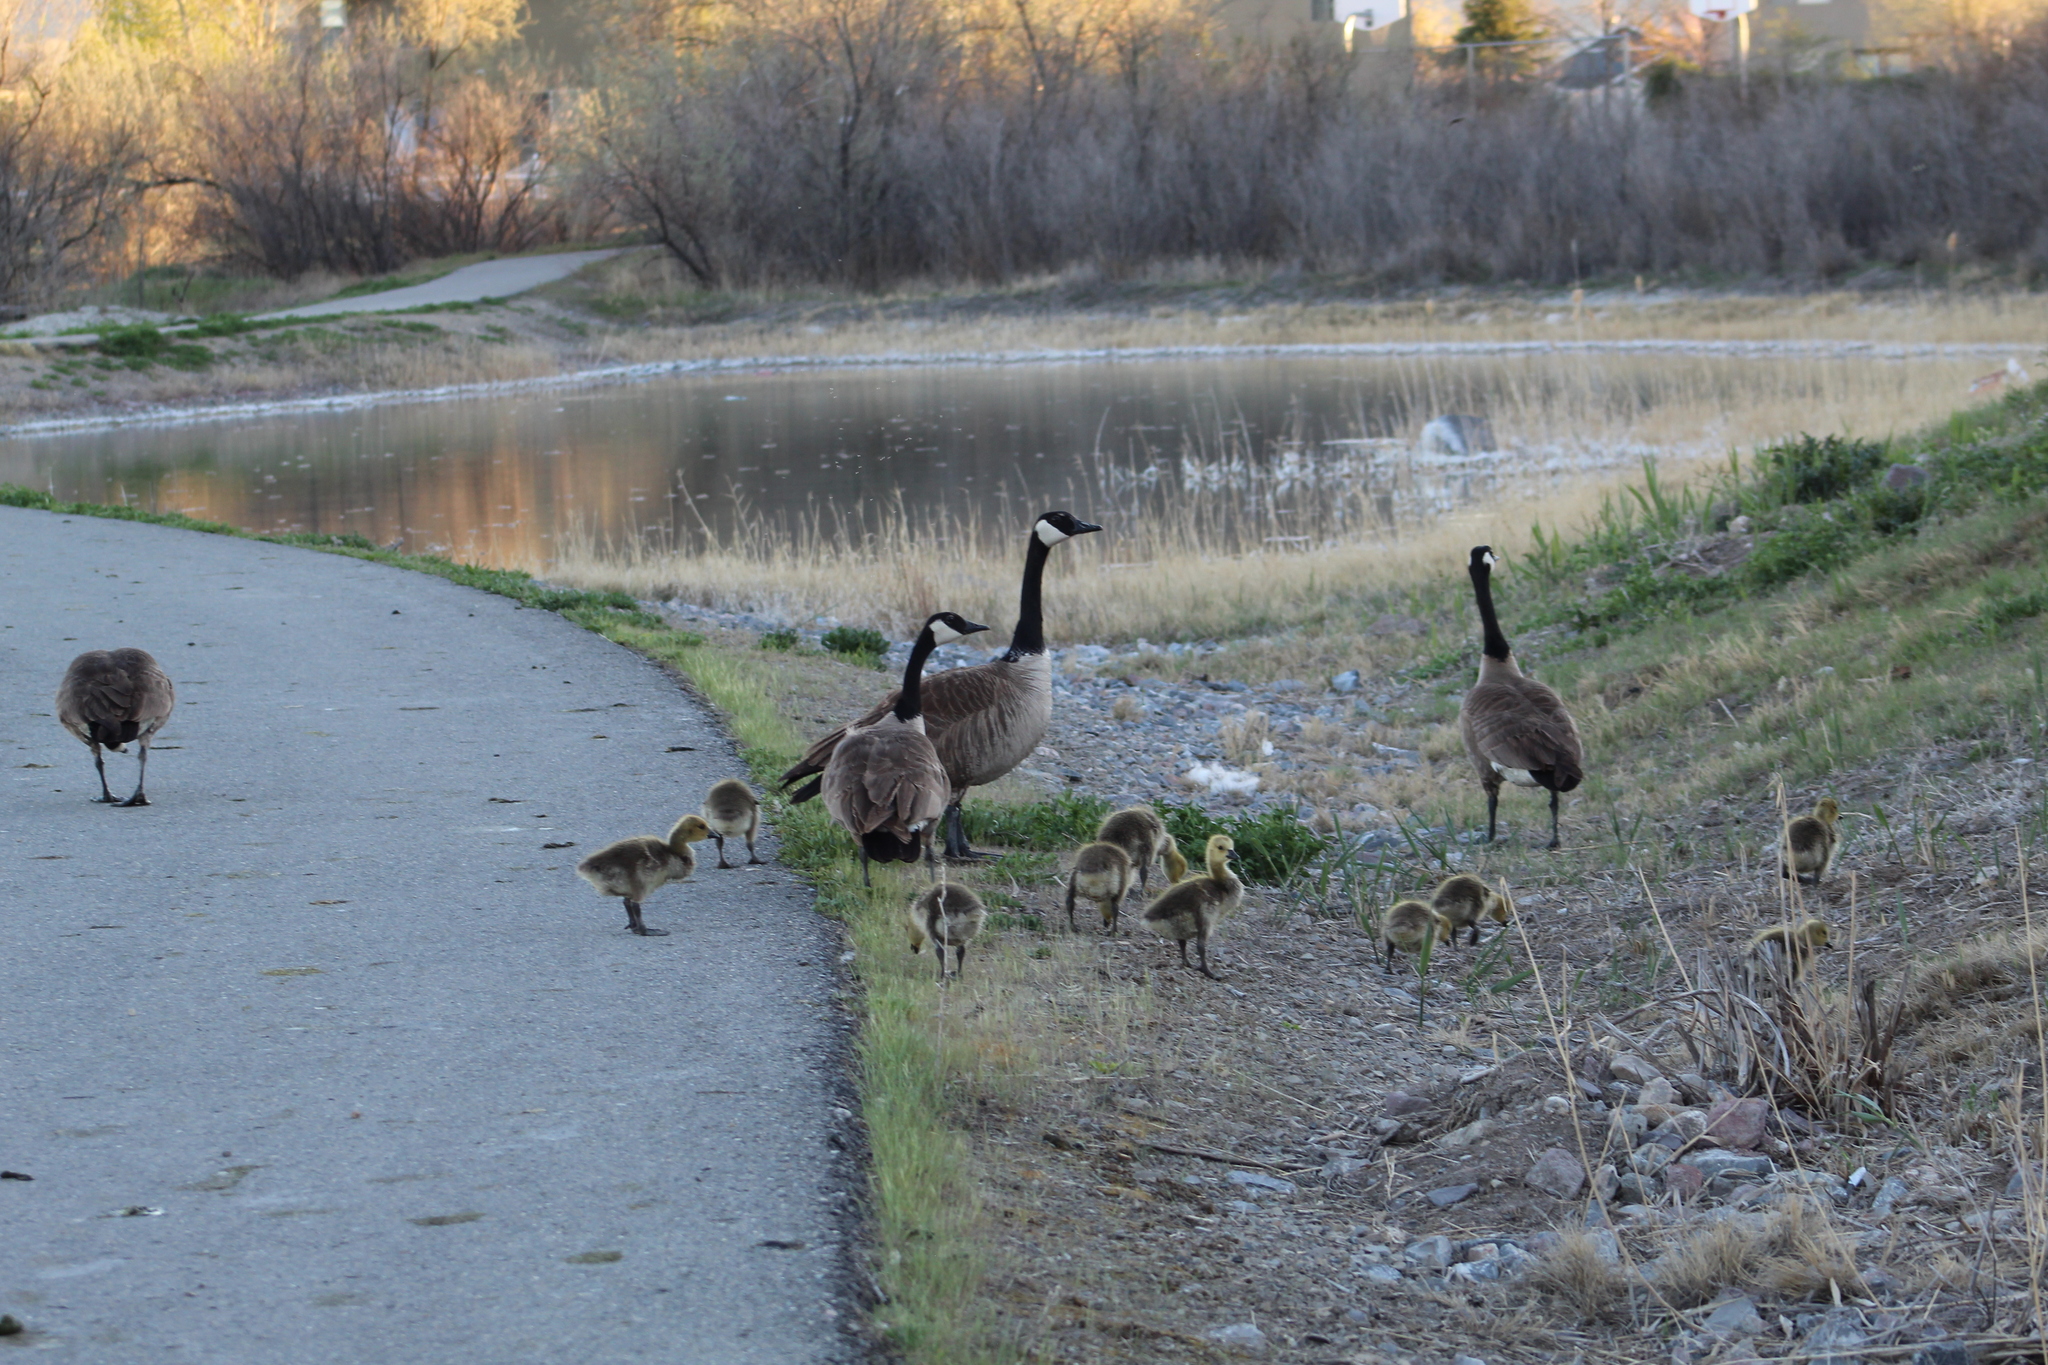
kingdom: Animalia
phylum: Chordata
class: Aves
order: Anseriformes
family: Anatidae
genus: Branta
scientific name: Branta canadensis
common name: Canada goose
